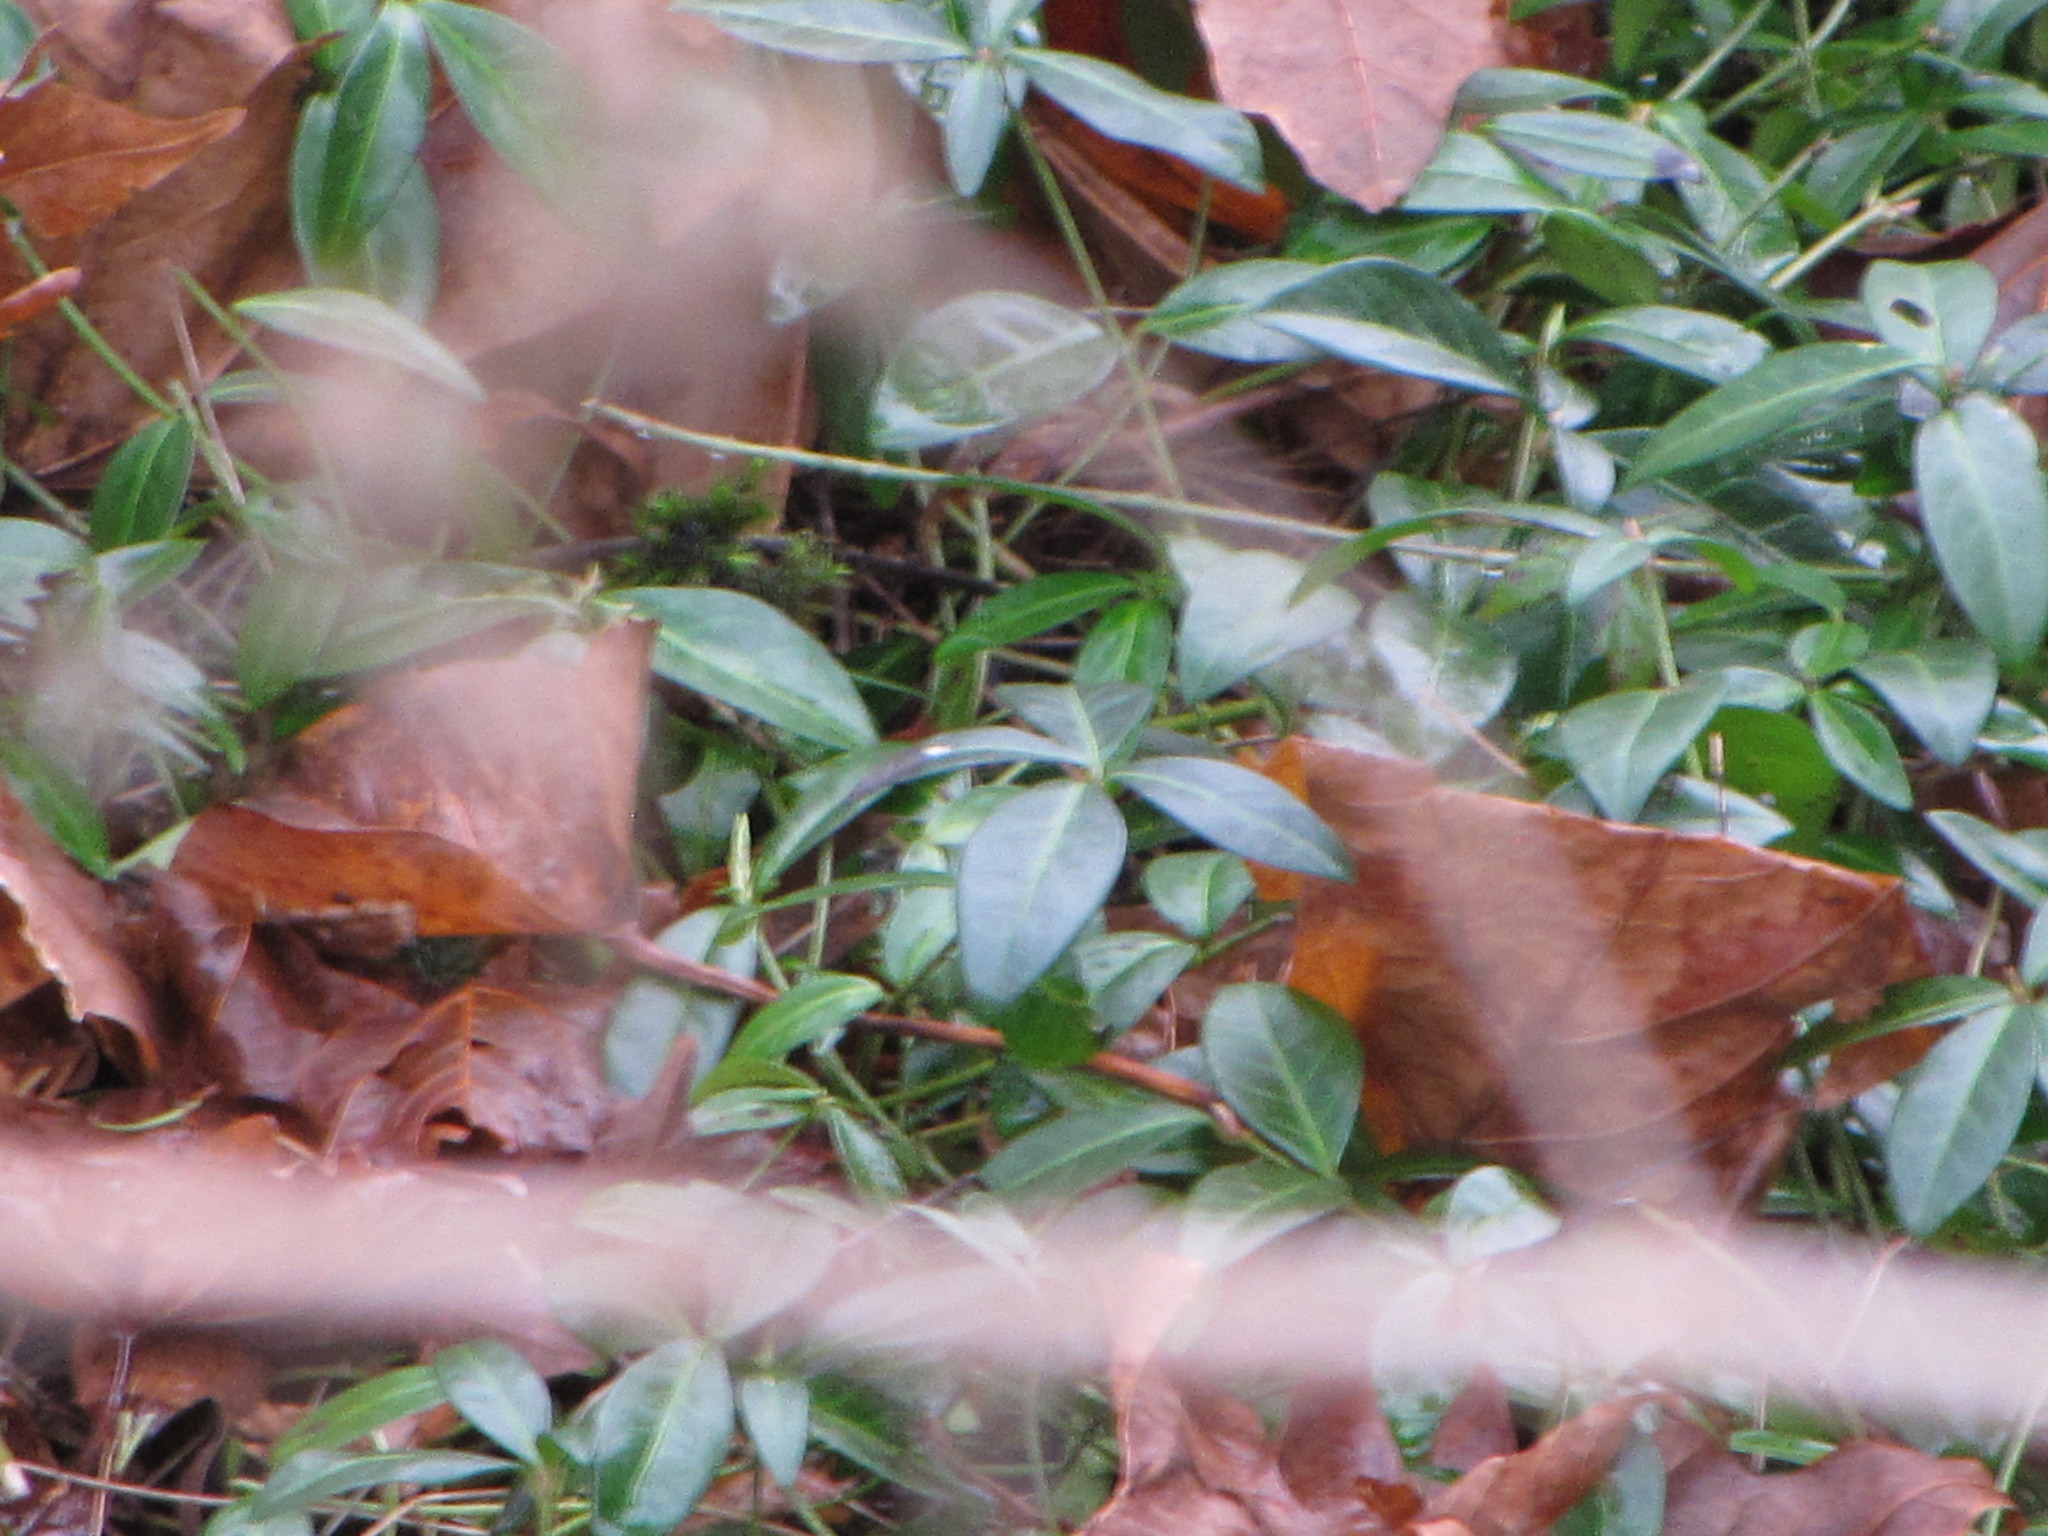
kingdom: Plantae
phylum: Tracheophyta
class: Magnoliopsida
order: Gentianales
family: Apocynaceae
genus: Vinca
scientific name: Vinca minor
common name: Lesser periwinkle
